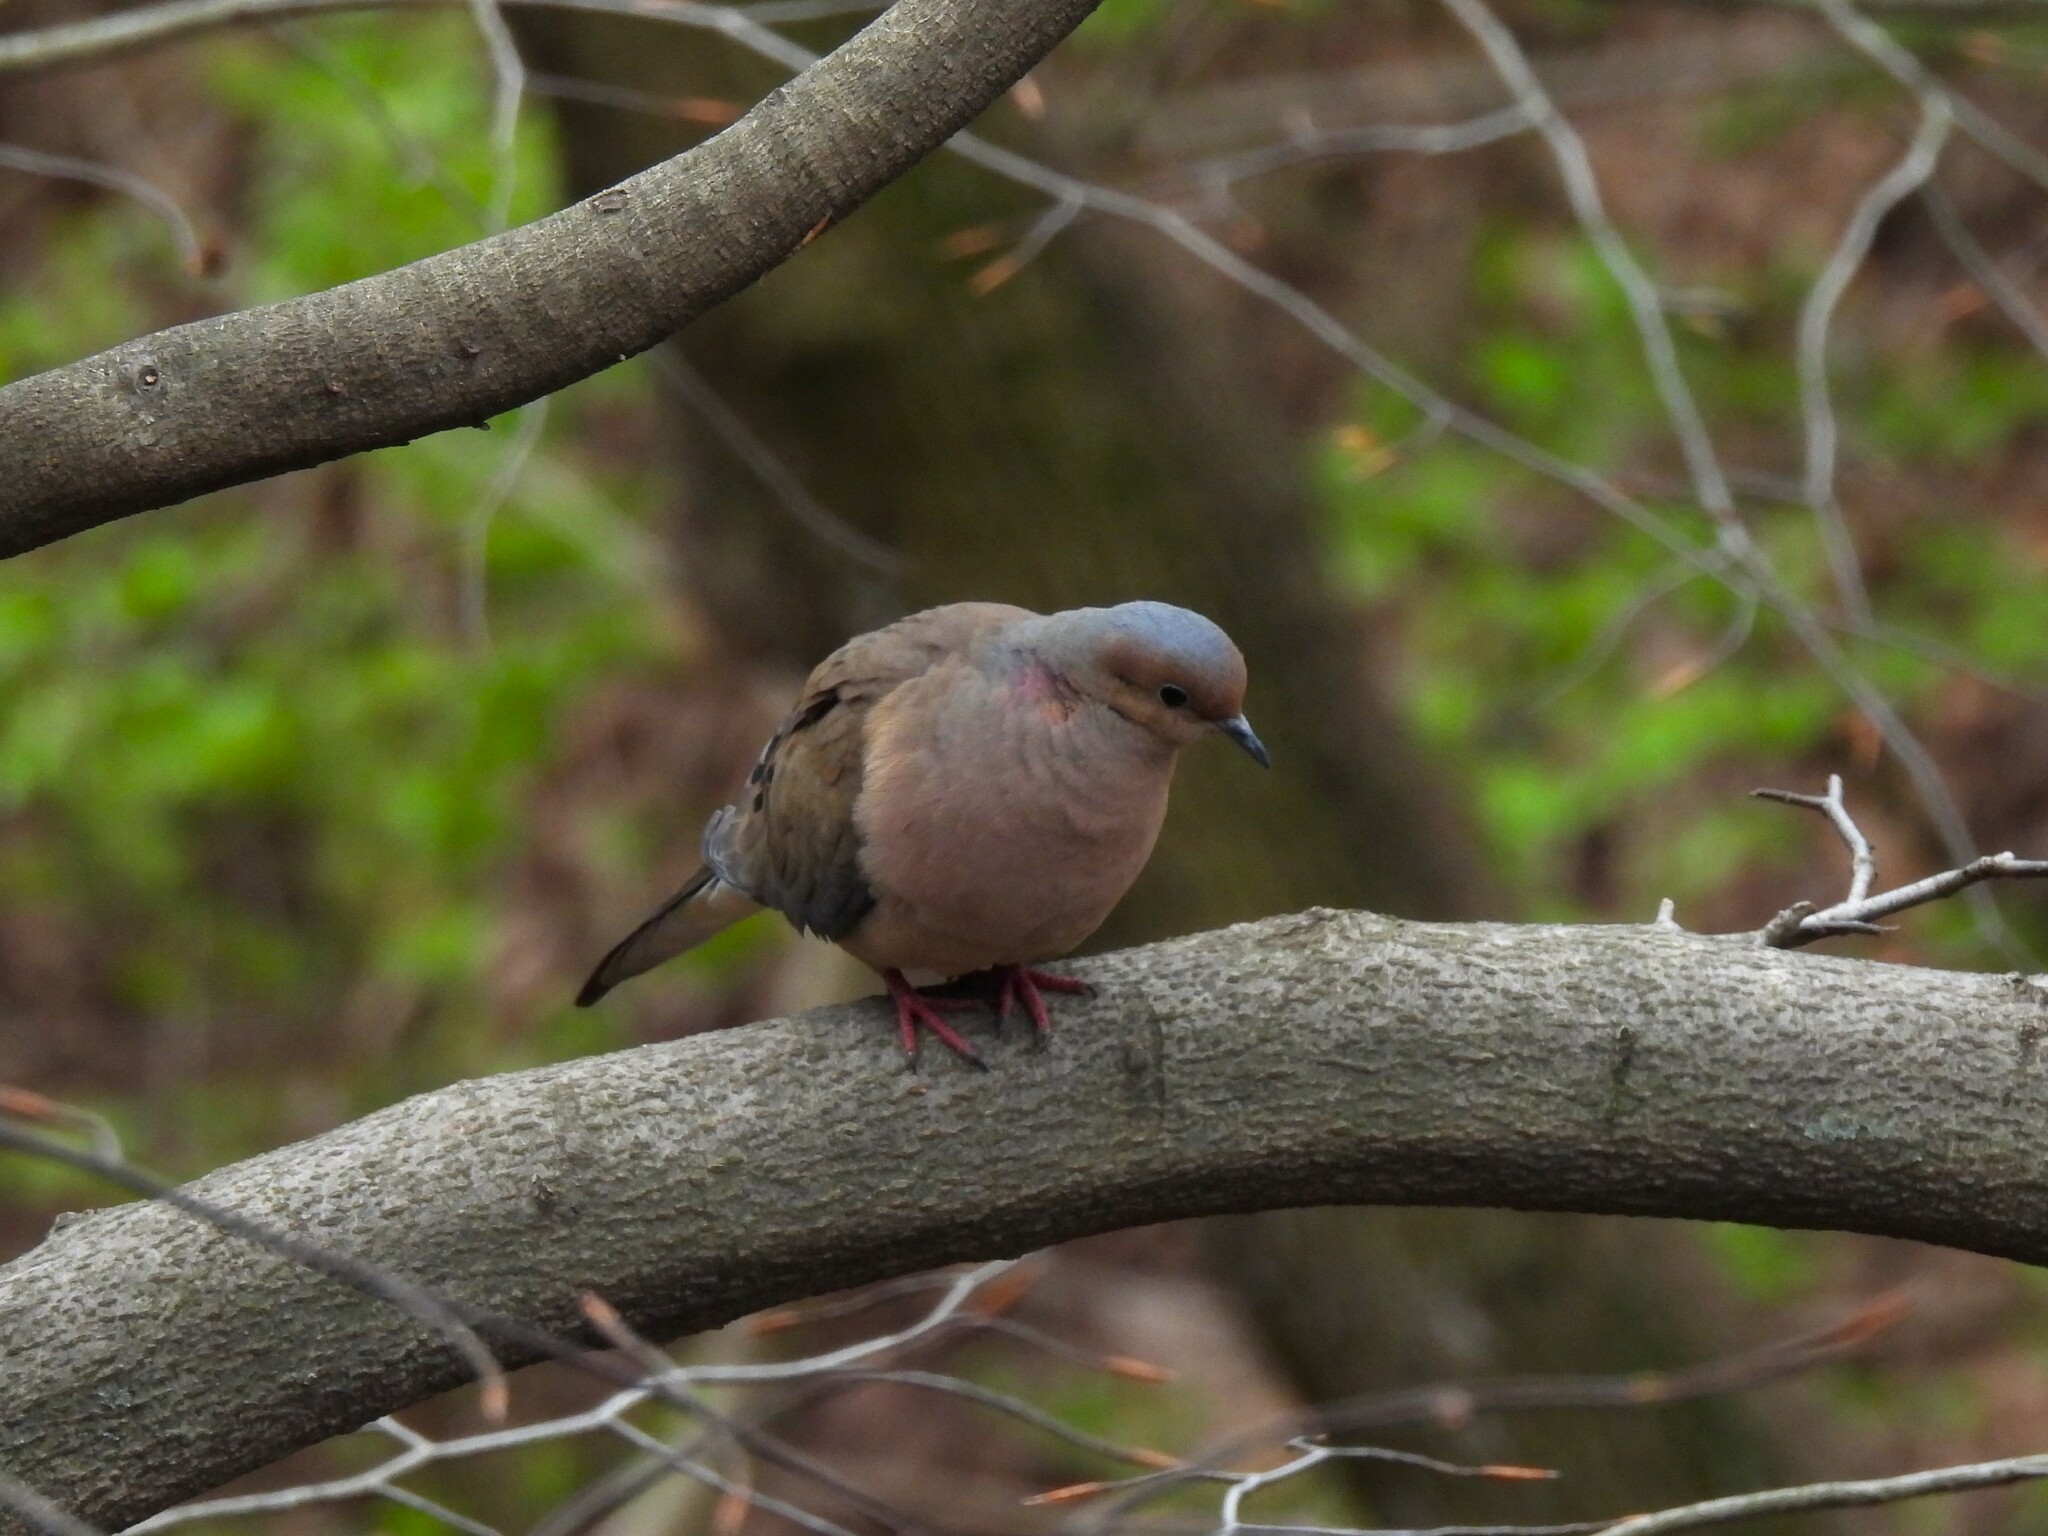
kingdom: Animalia
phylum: Chordata
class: Aves
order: Columbiformes
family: Columbidae
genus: Zenaida
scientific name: Zenaida macroura
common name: Mourning dove
